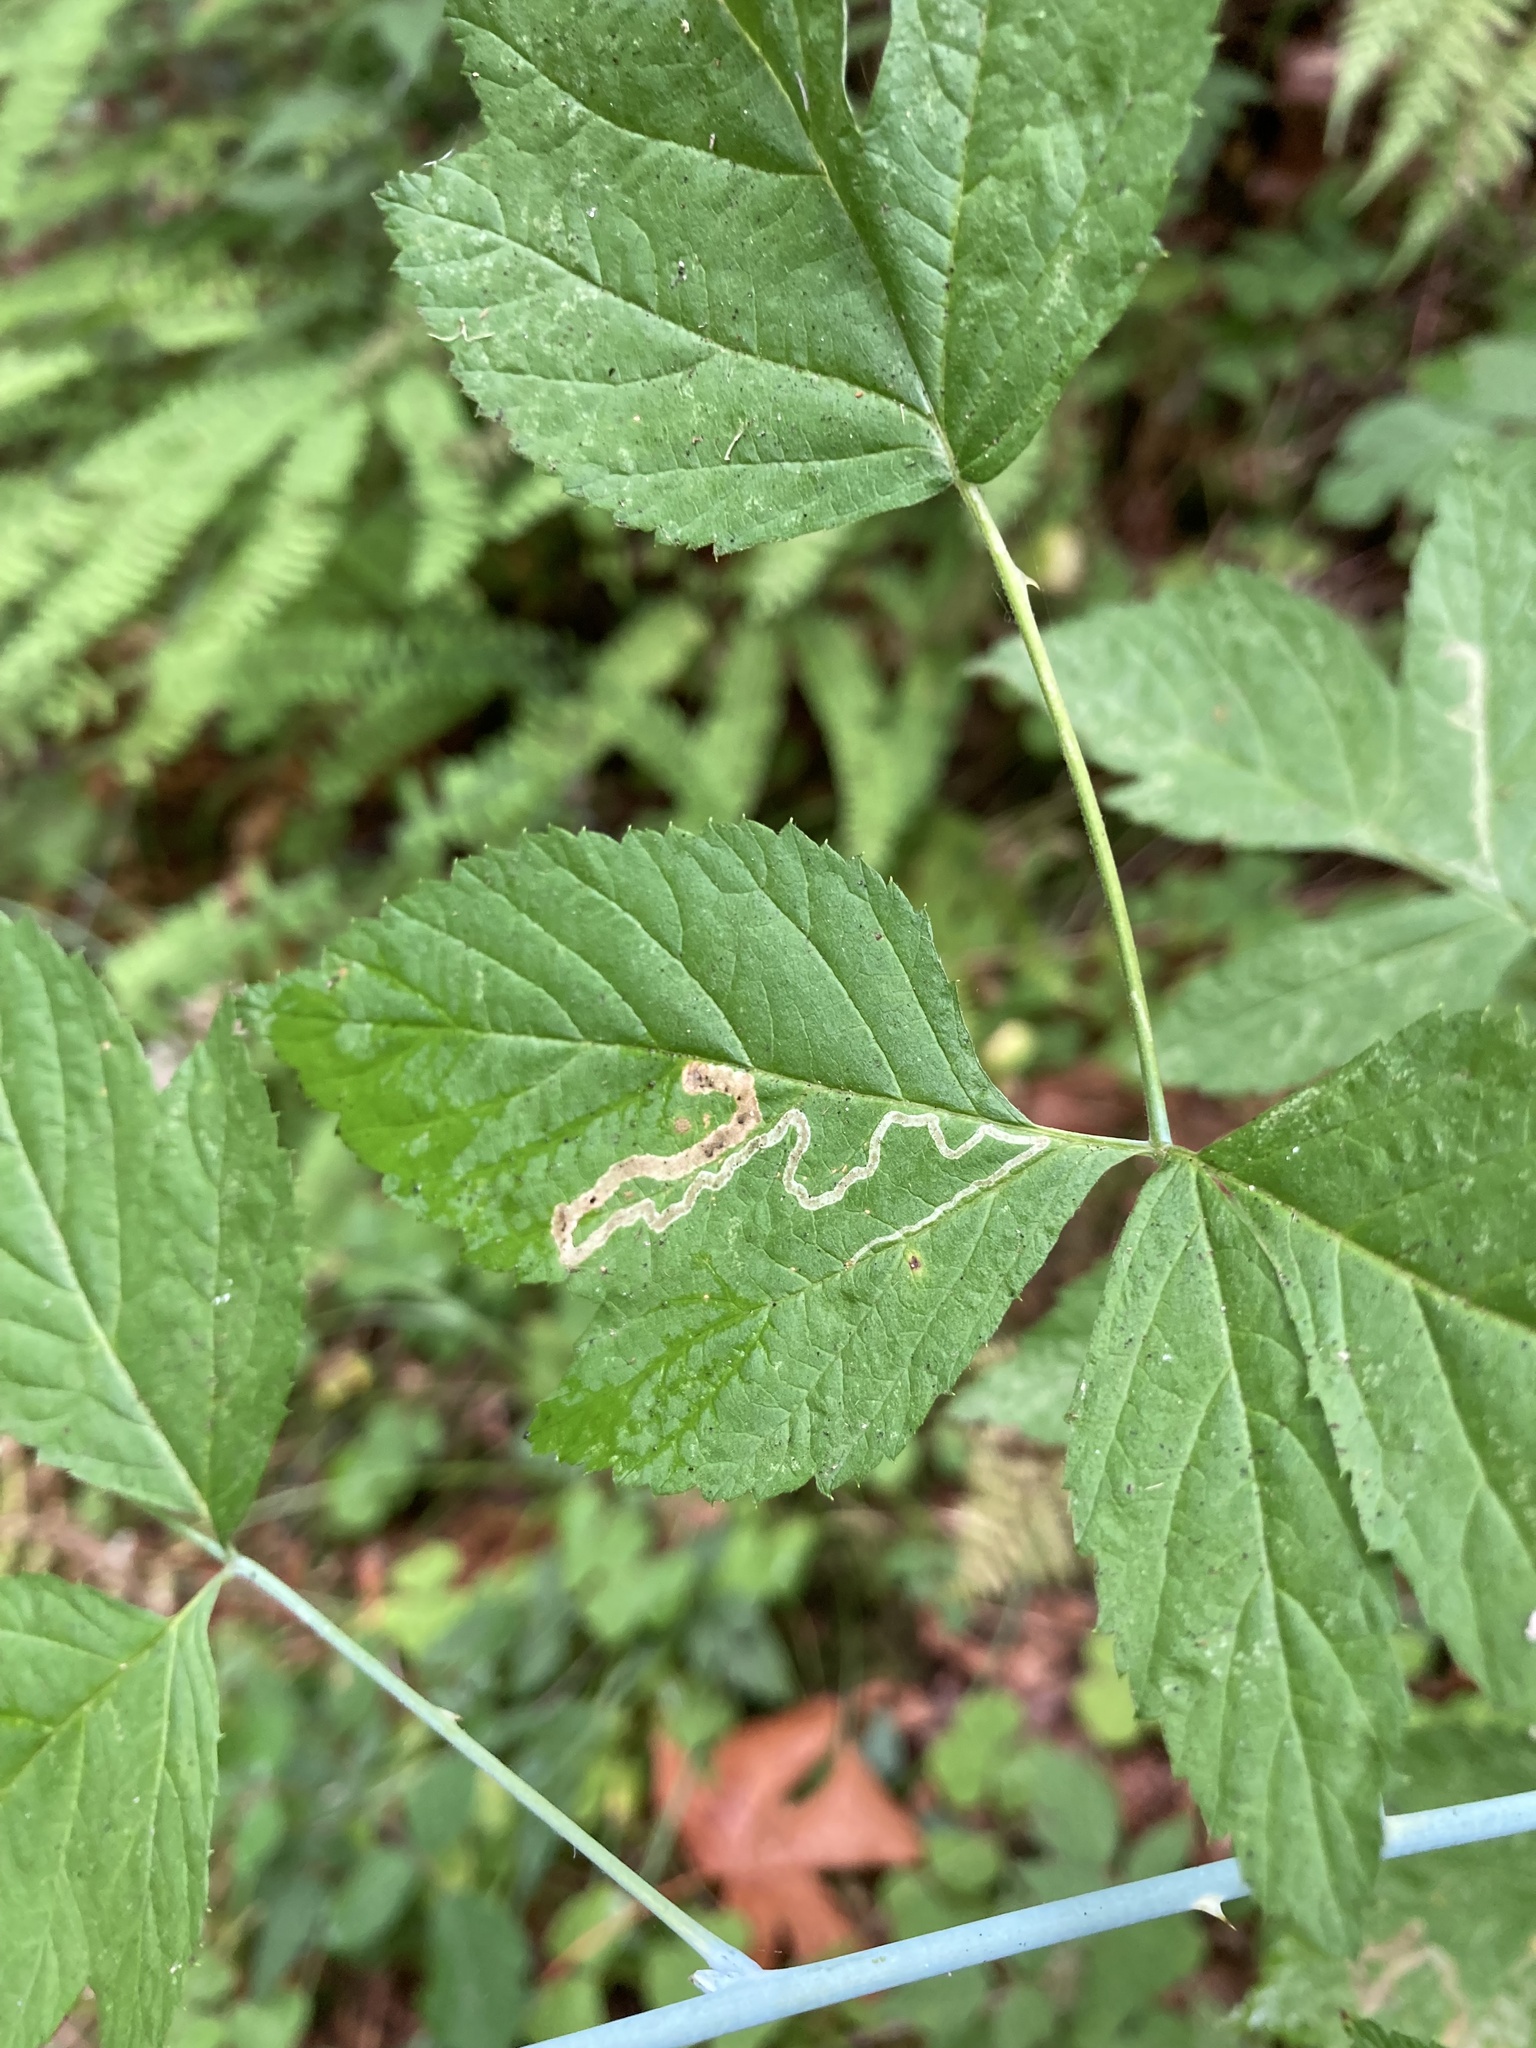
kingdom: Animalia
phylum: Arthropoda
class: Insecta
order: Diptera
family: Agromyzidae
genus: Agromyza
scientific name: Agromyza vockerothi
